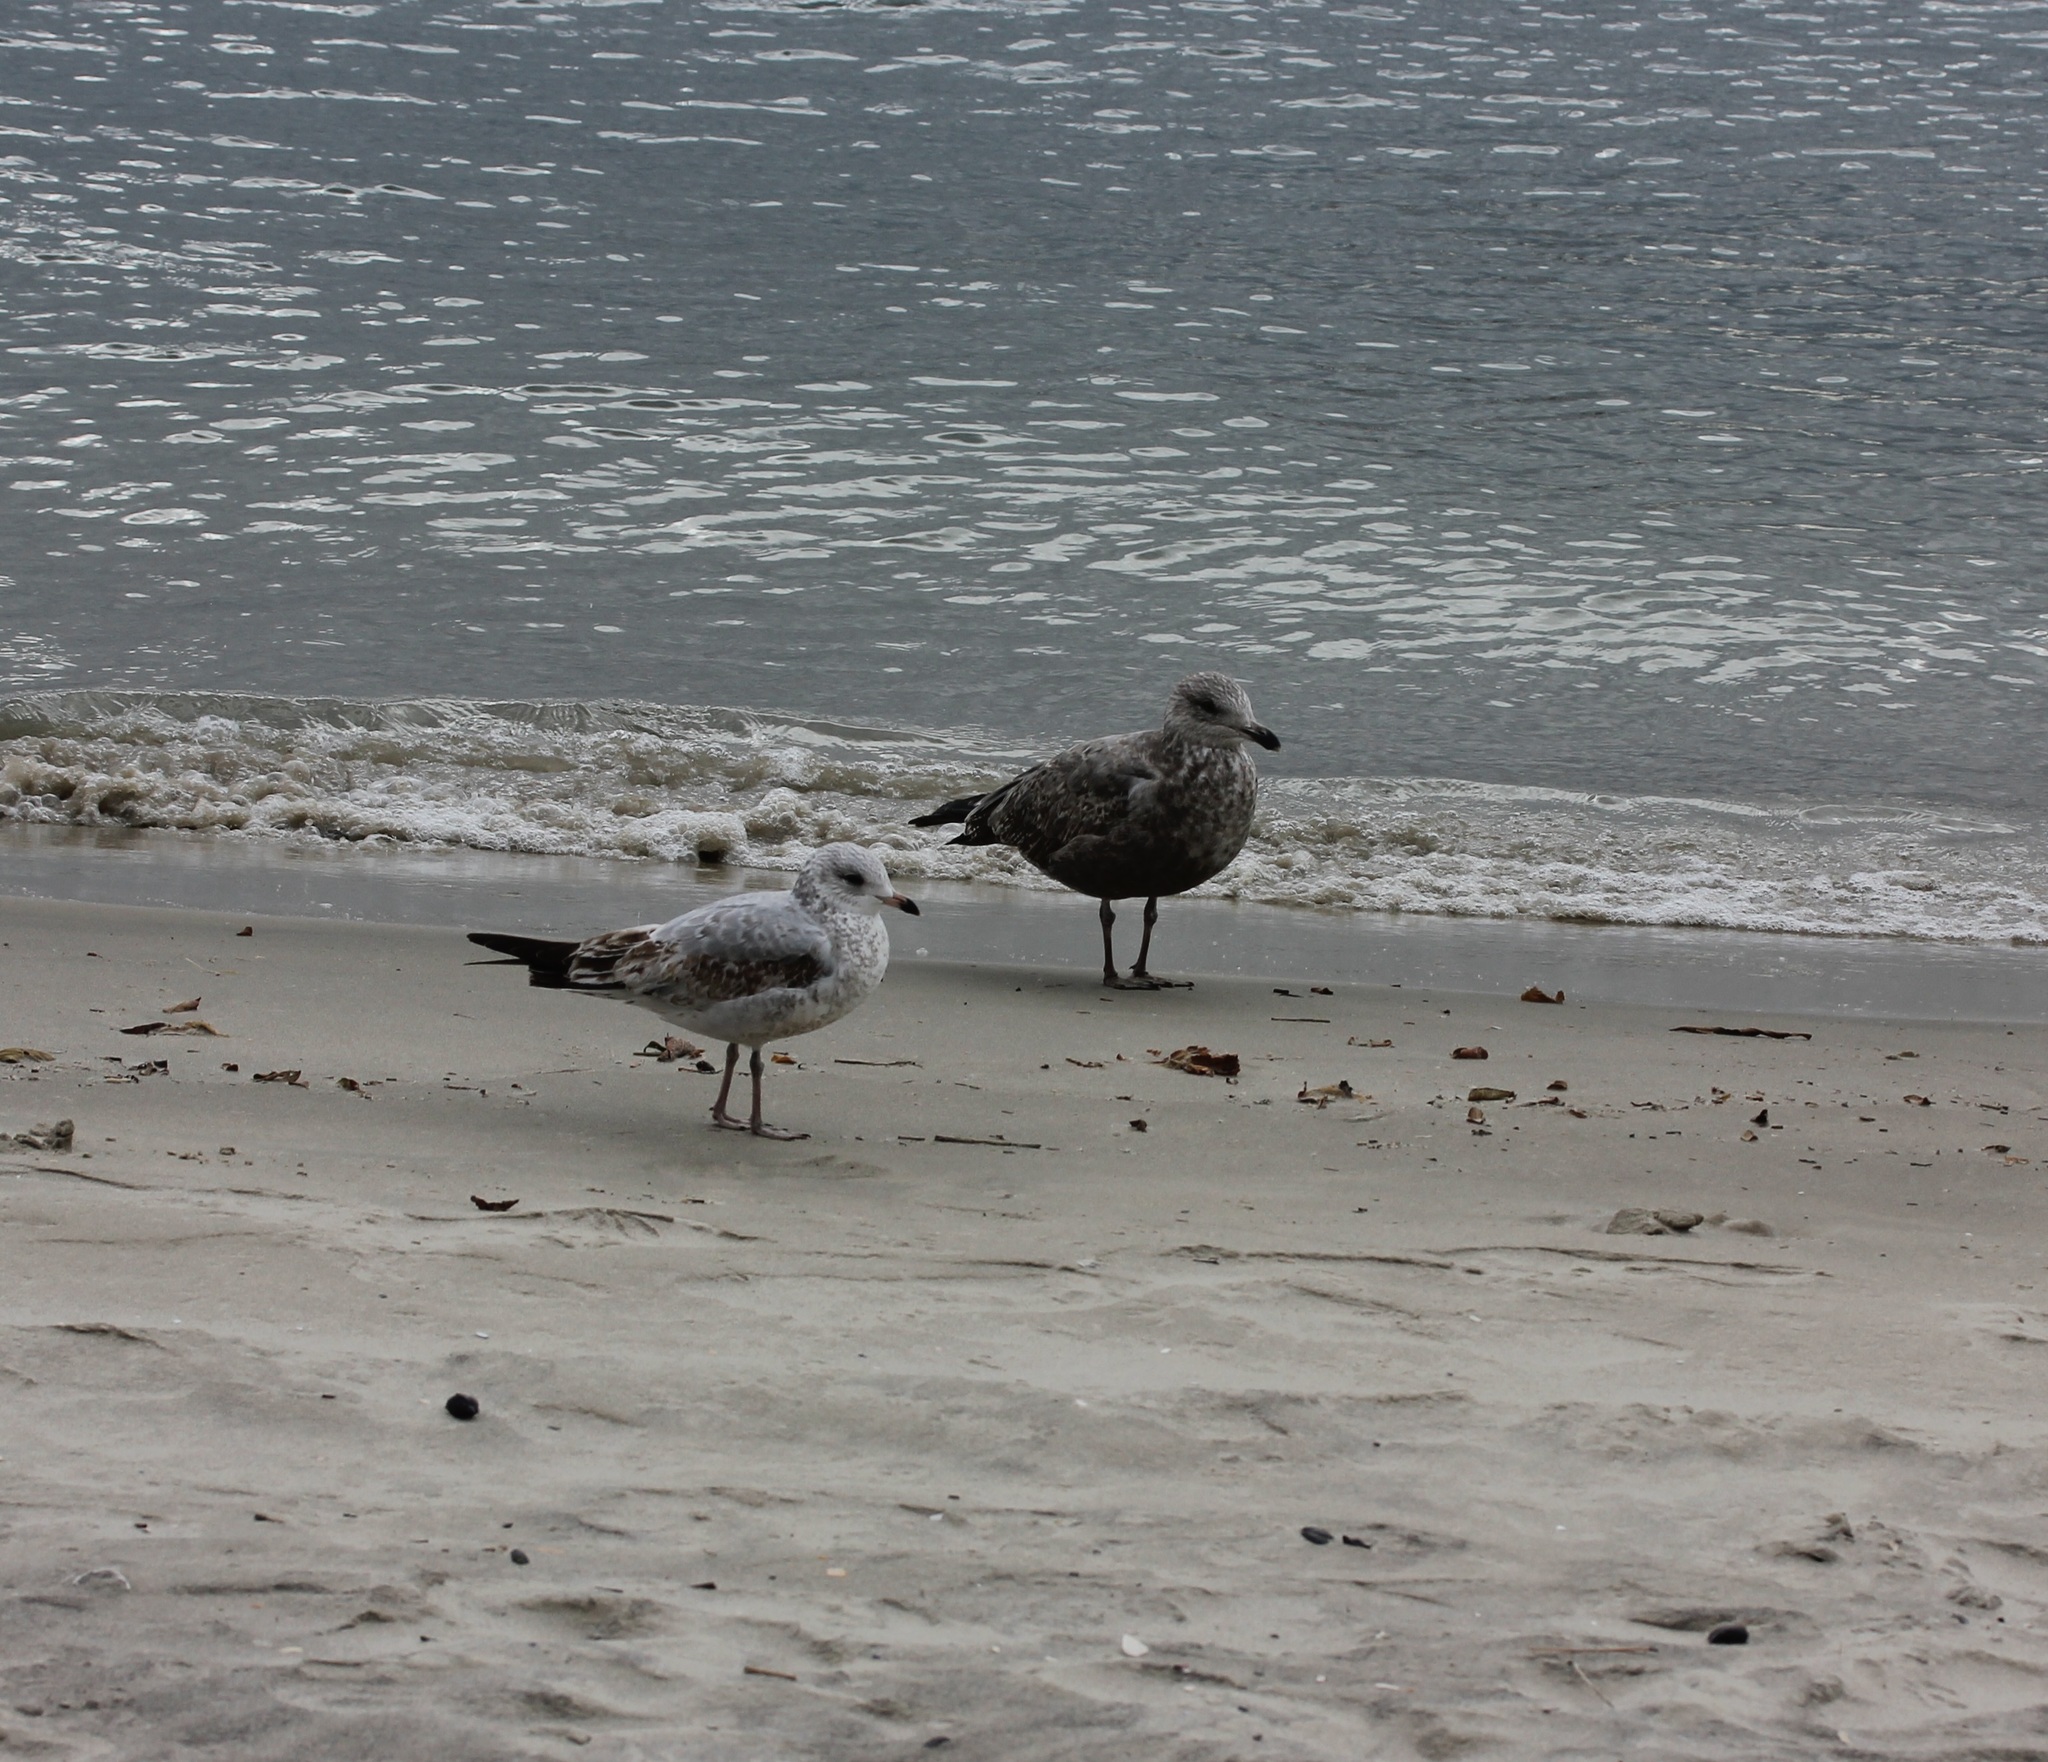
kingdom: Animalia
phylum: Chordata
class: Aves
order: Charadriiformes
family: Laridae
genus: Larus
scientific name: Larus delawarensis
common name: Ring-billed gull
